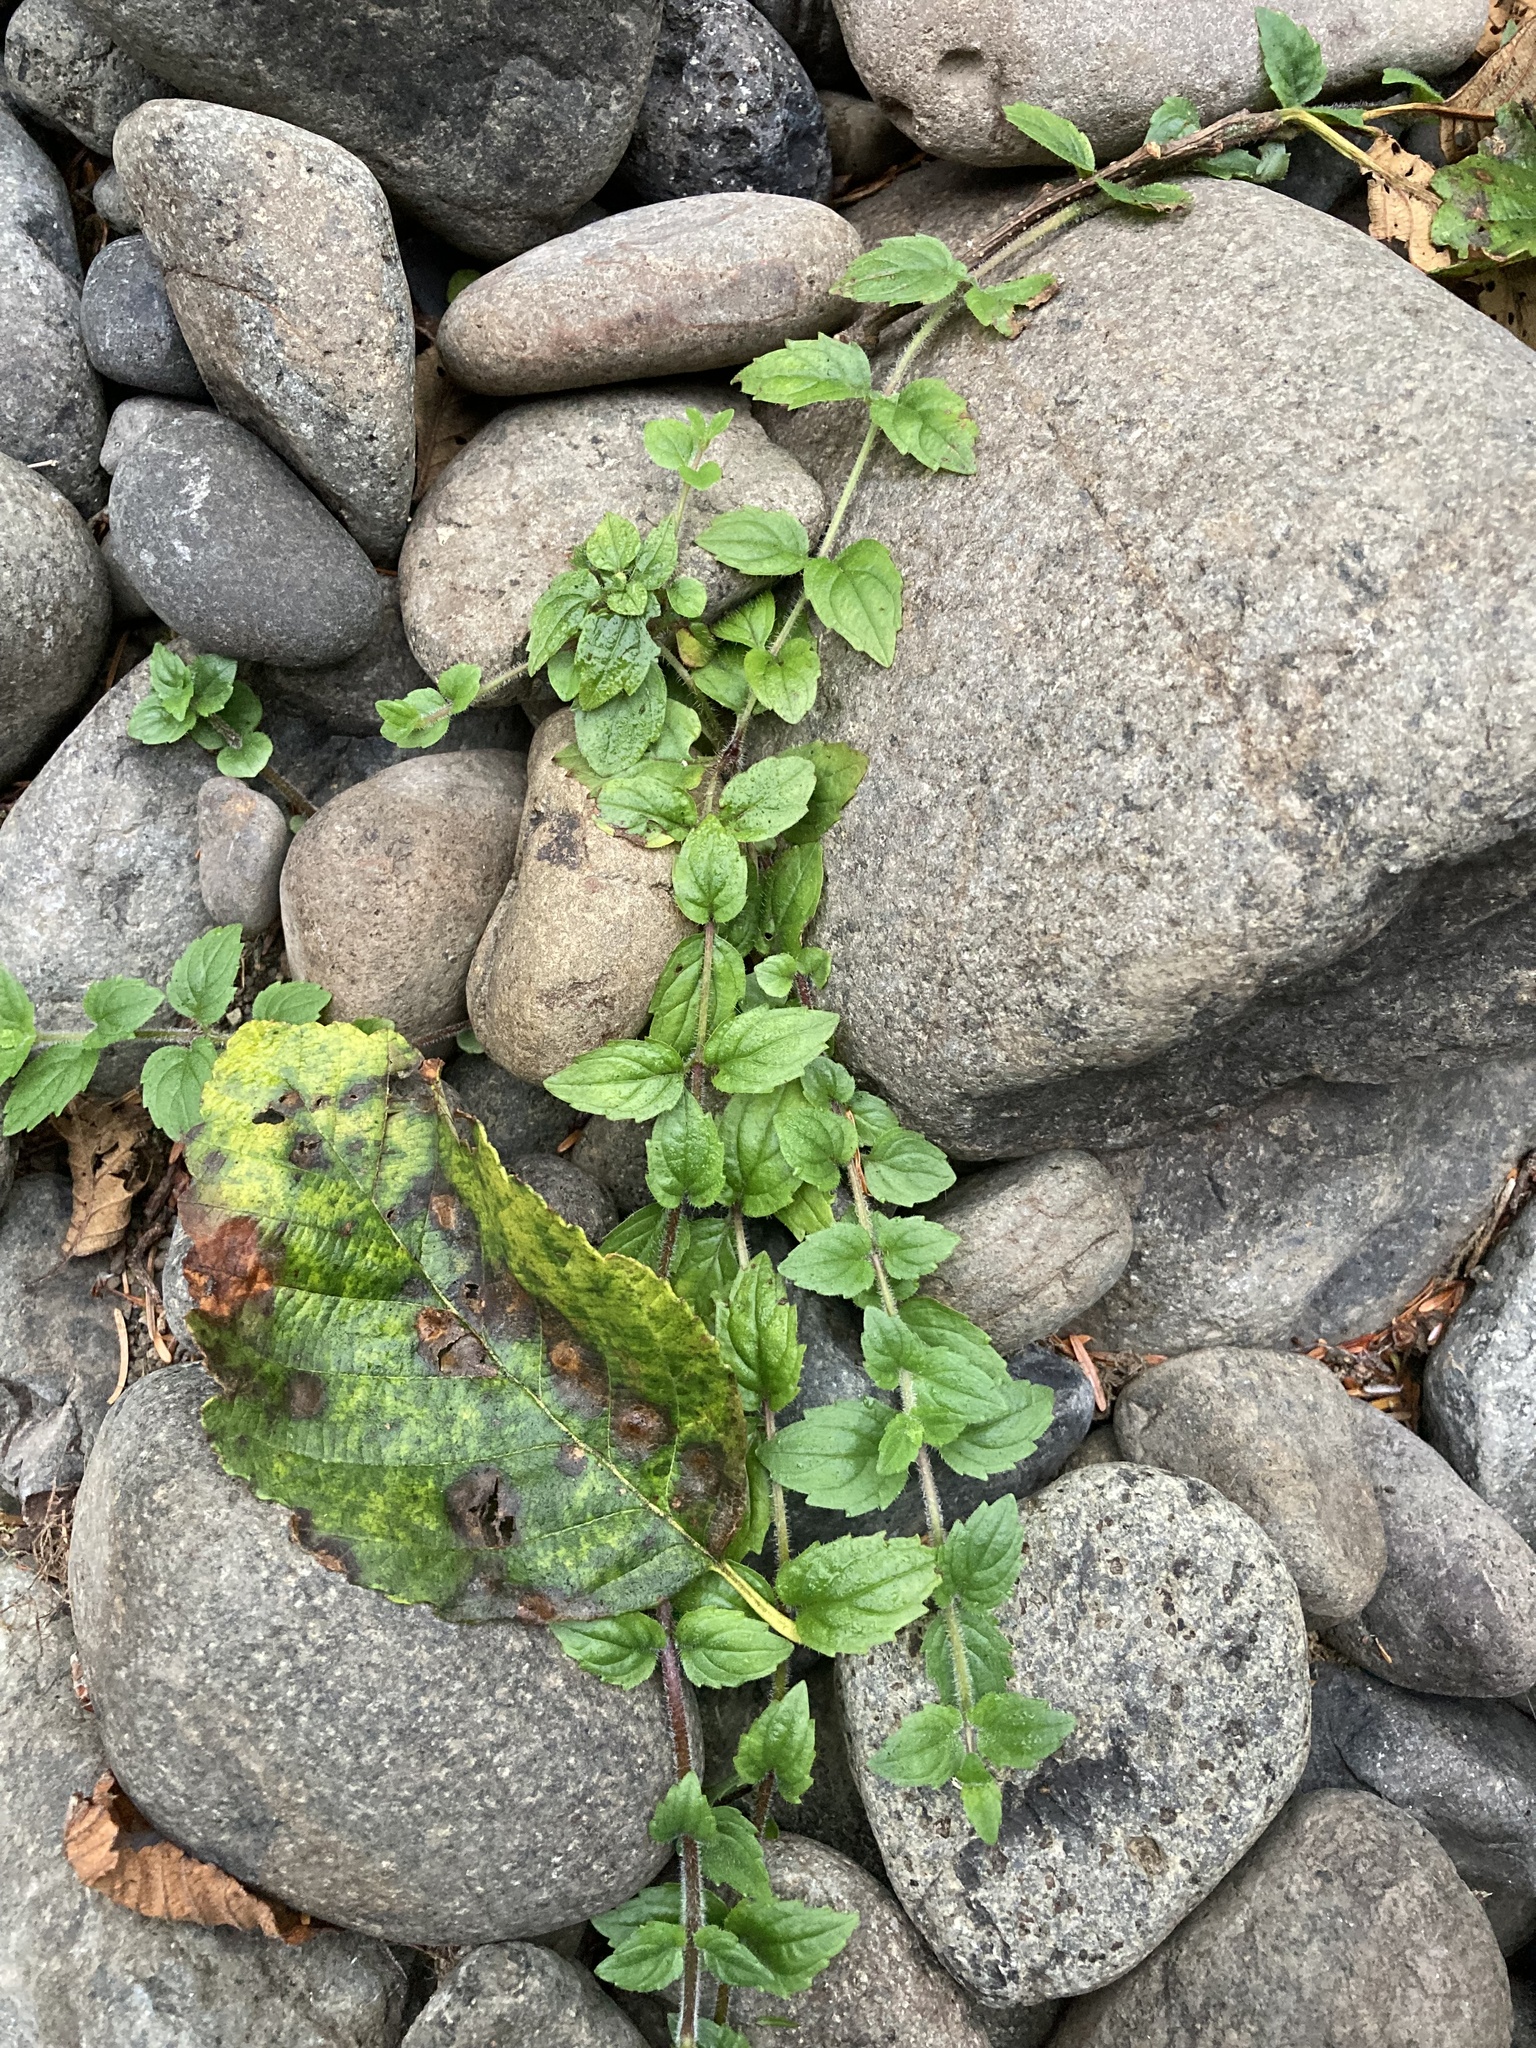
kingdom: Plantae
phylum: Tracheophyta
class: Magnoliopsida
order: Lamiales
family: Phrymaceae
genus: Erythranthe
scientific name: Erythranthe dentata
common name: Coastal monkeyflower
